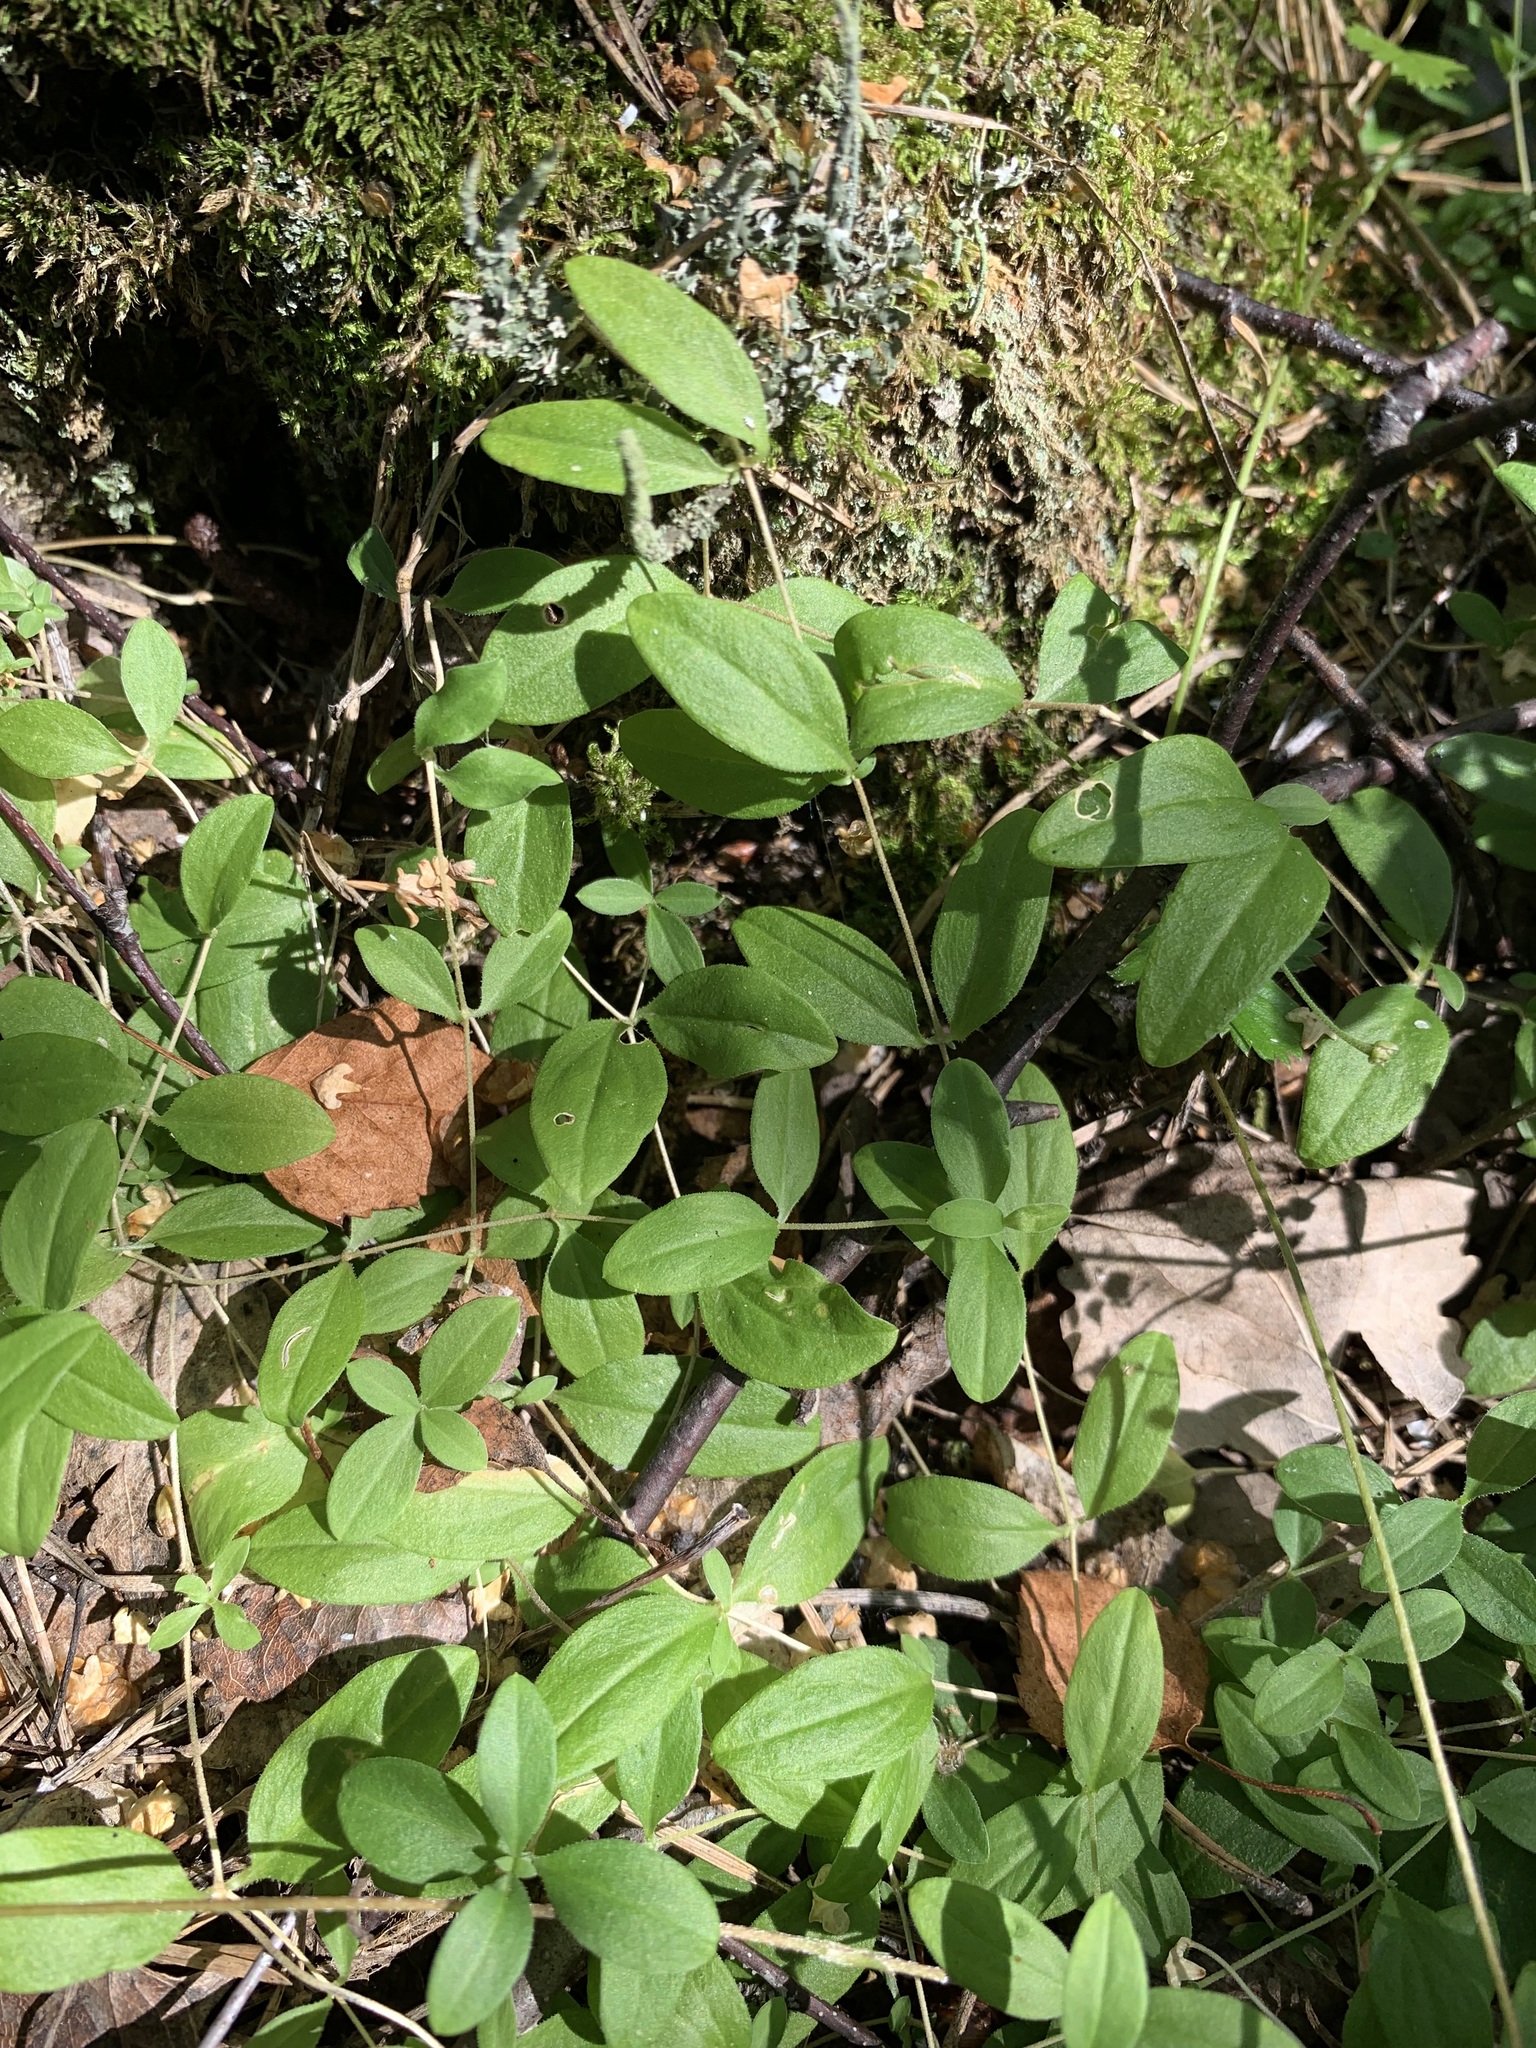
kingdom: Plantae
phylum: Tracheophyta
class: Magnoliopsida
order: Caryophyllales
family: Caryophyllaceae
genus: Moehringia
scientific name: Moehringia lateriflora
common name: Blunt-leaved sandwort
